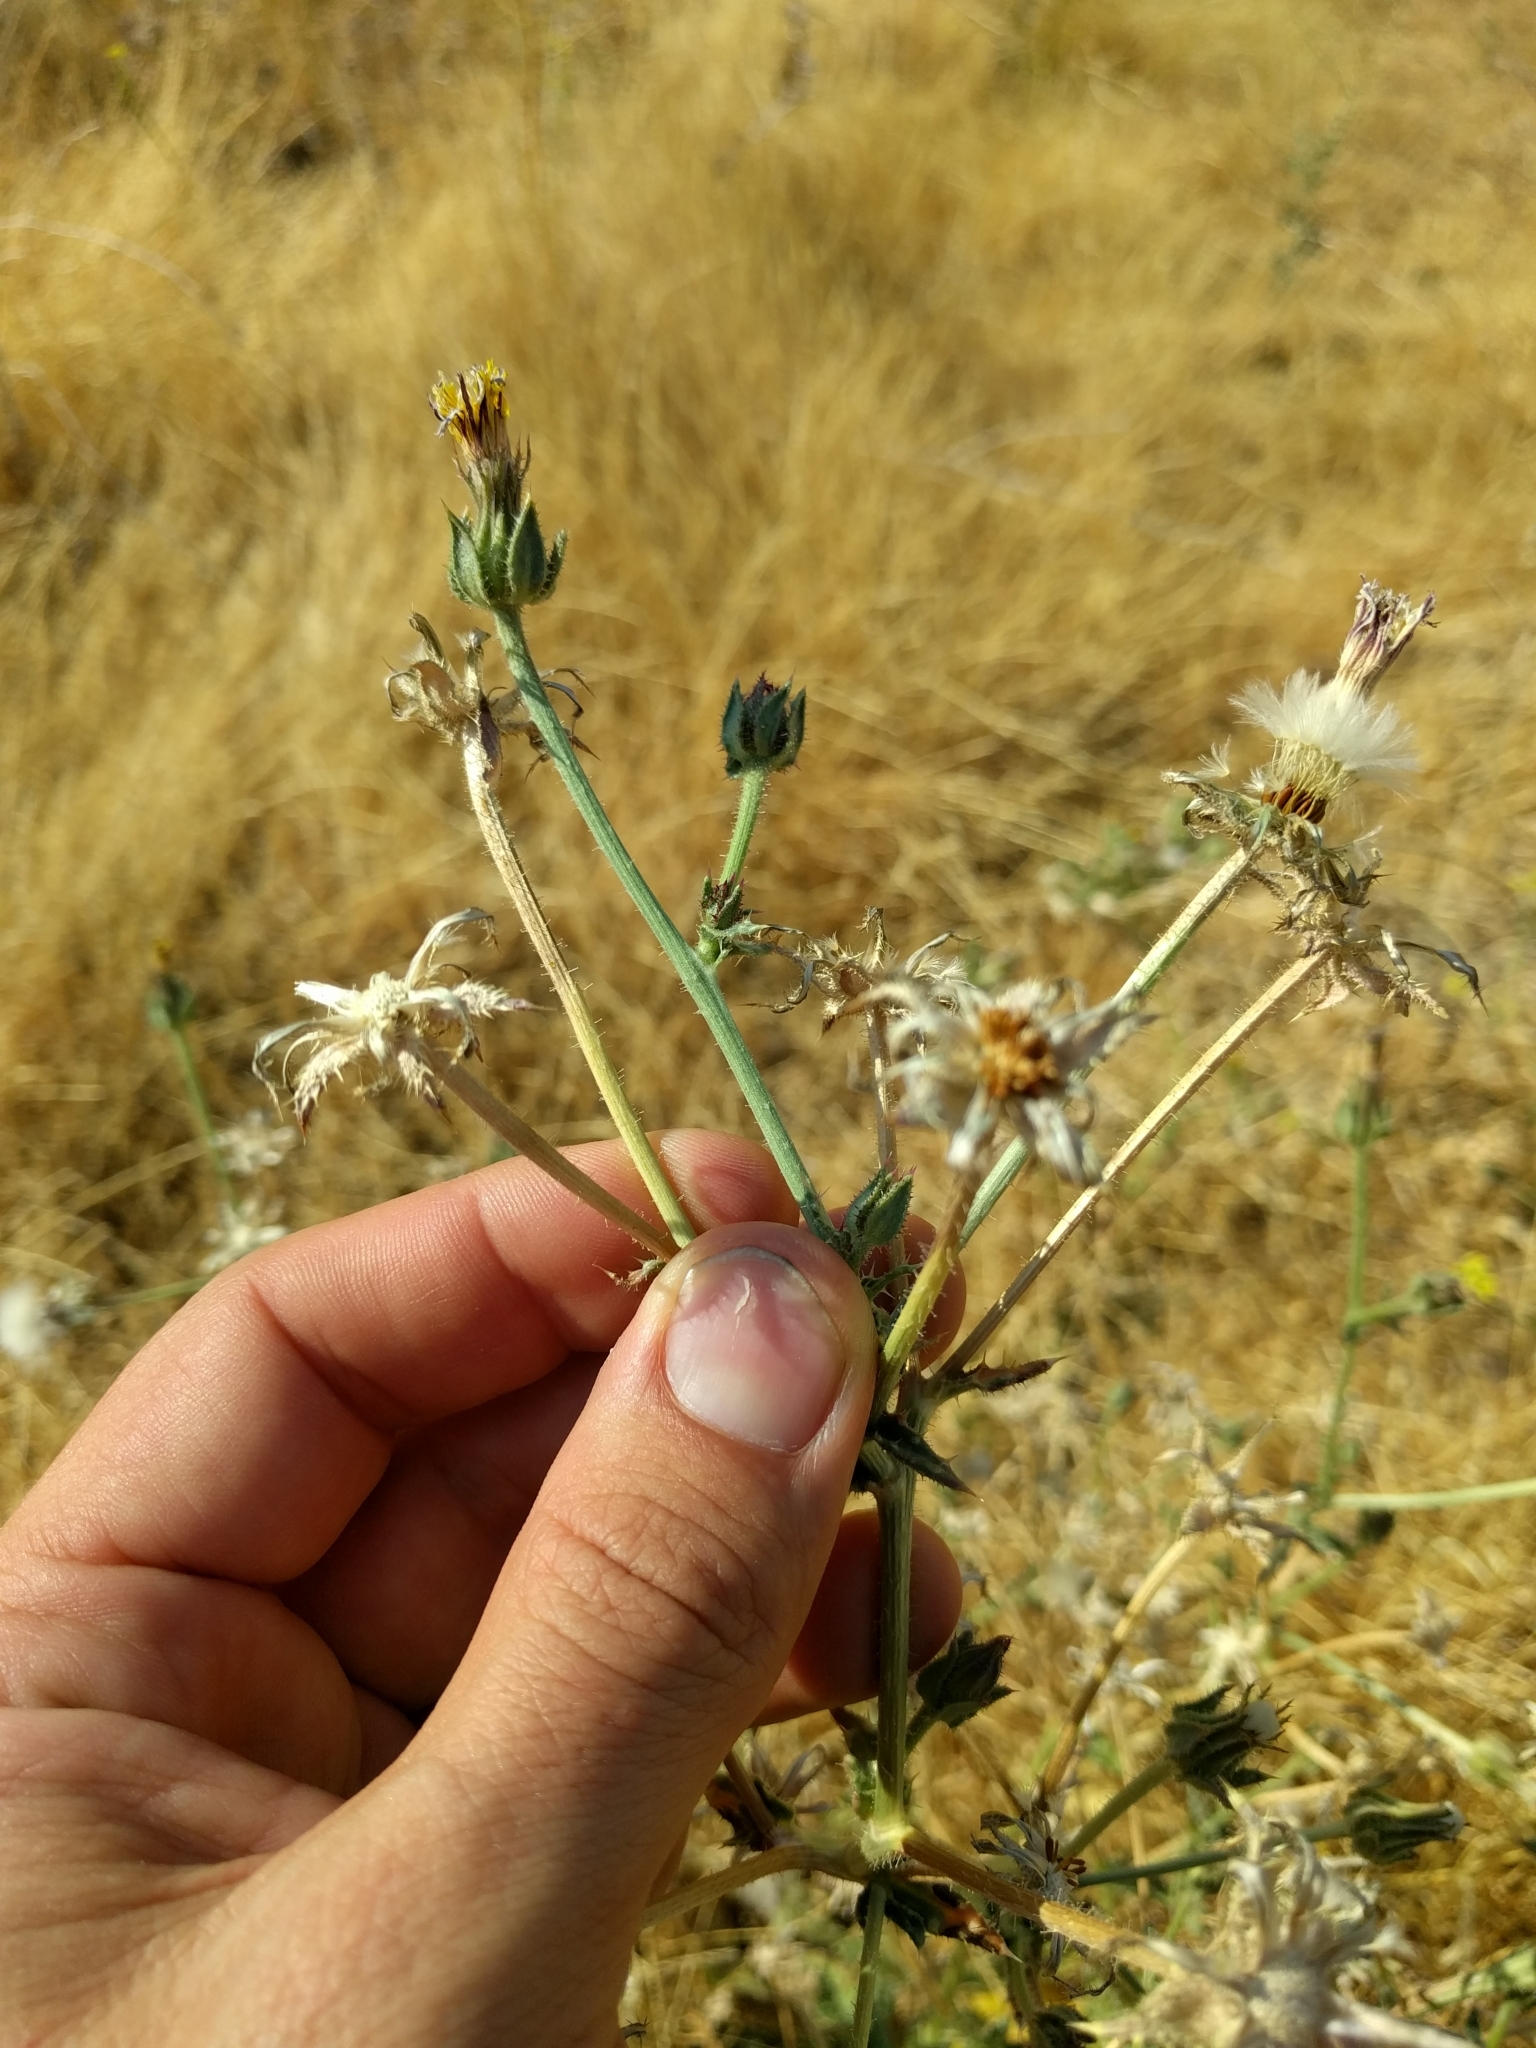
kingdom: Plantae
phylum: Tracheophyta
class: Magnoliopsida
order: Asterales
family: Asteraceae
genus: Helminthotheca
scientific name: Helminthotheca echioides
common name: Ox-tongue
